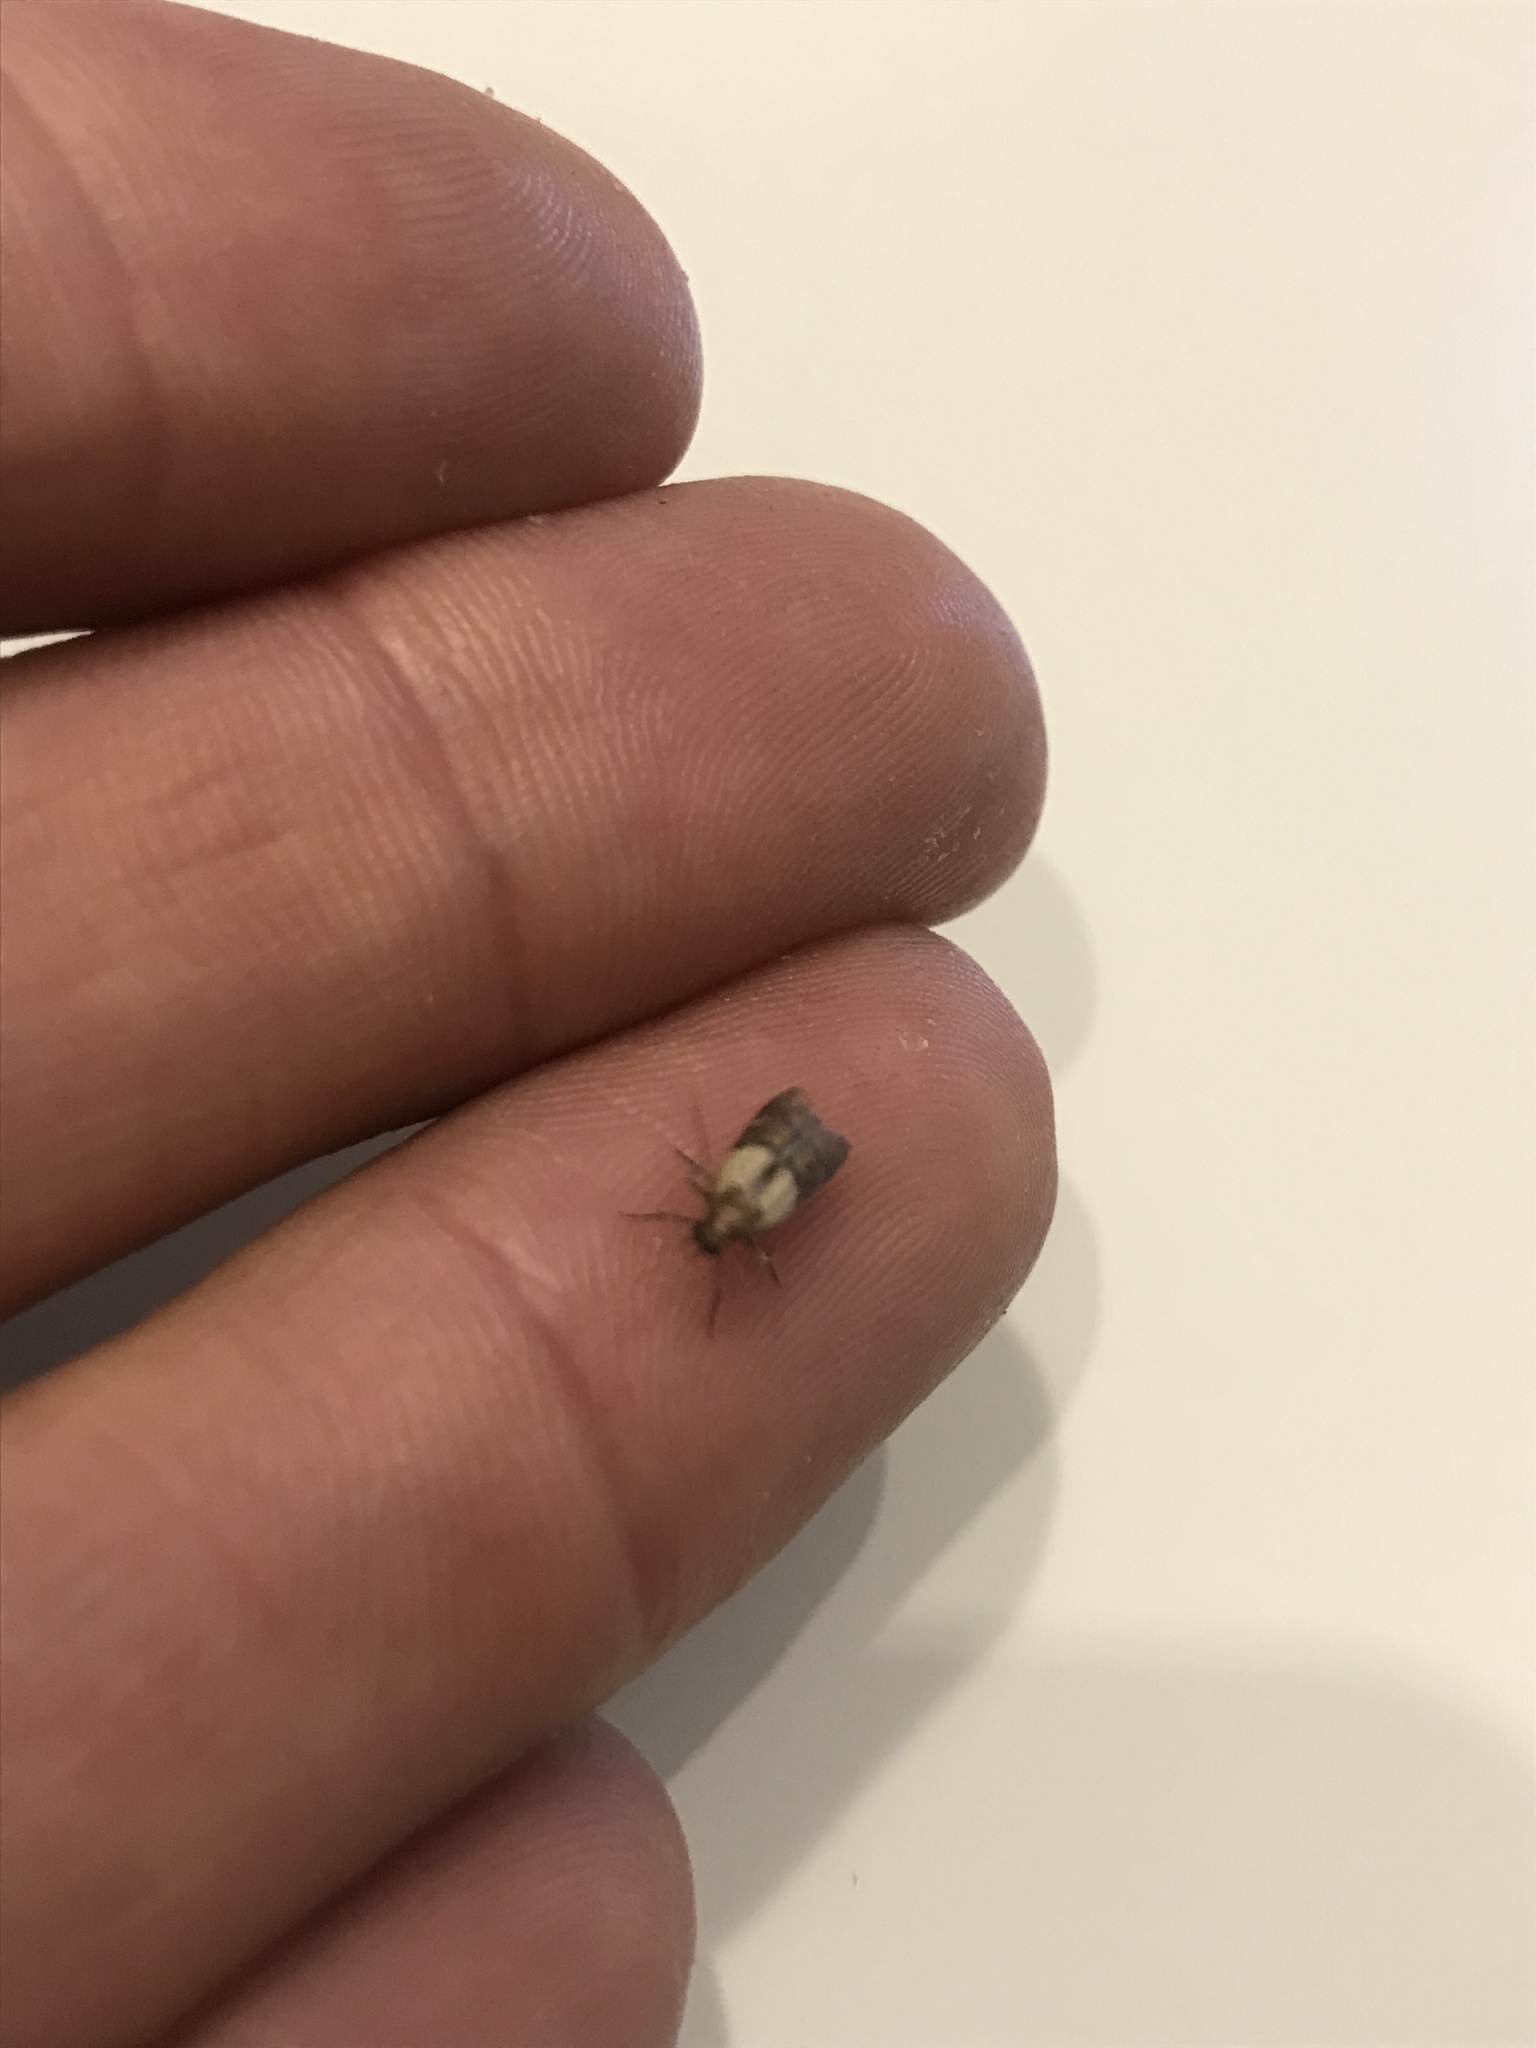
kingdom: Animalia
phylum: Arthropoda
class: Insecta
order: Lepidoptera
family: Pyralidae
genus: Plodia
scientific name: Plodia interpunctella
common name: Indian meal moth
